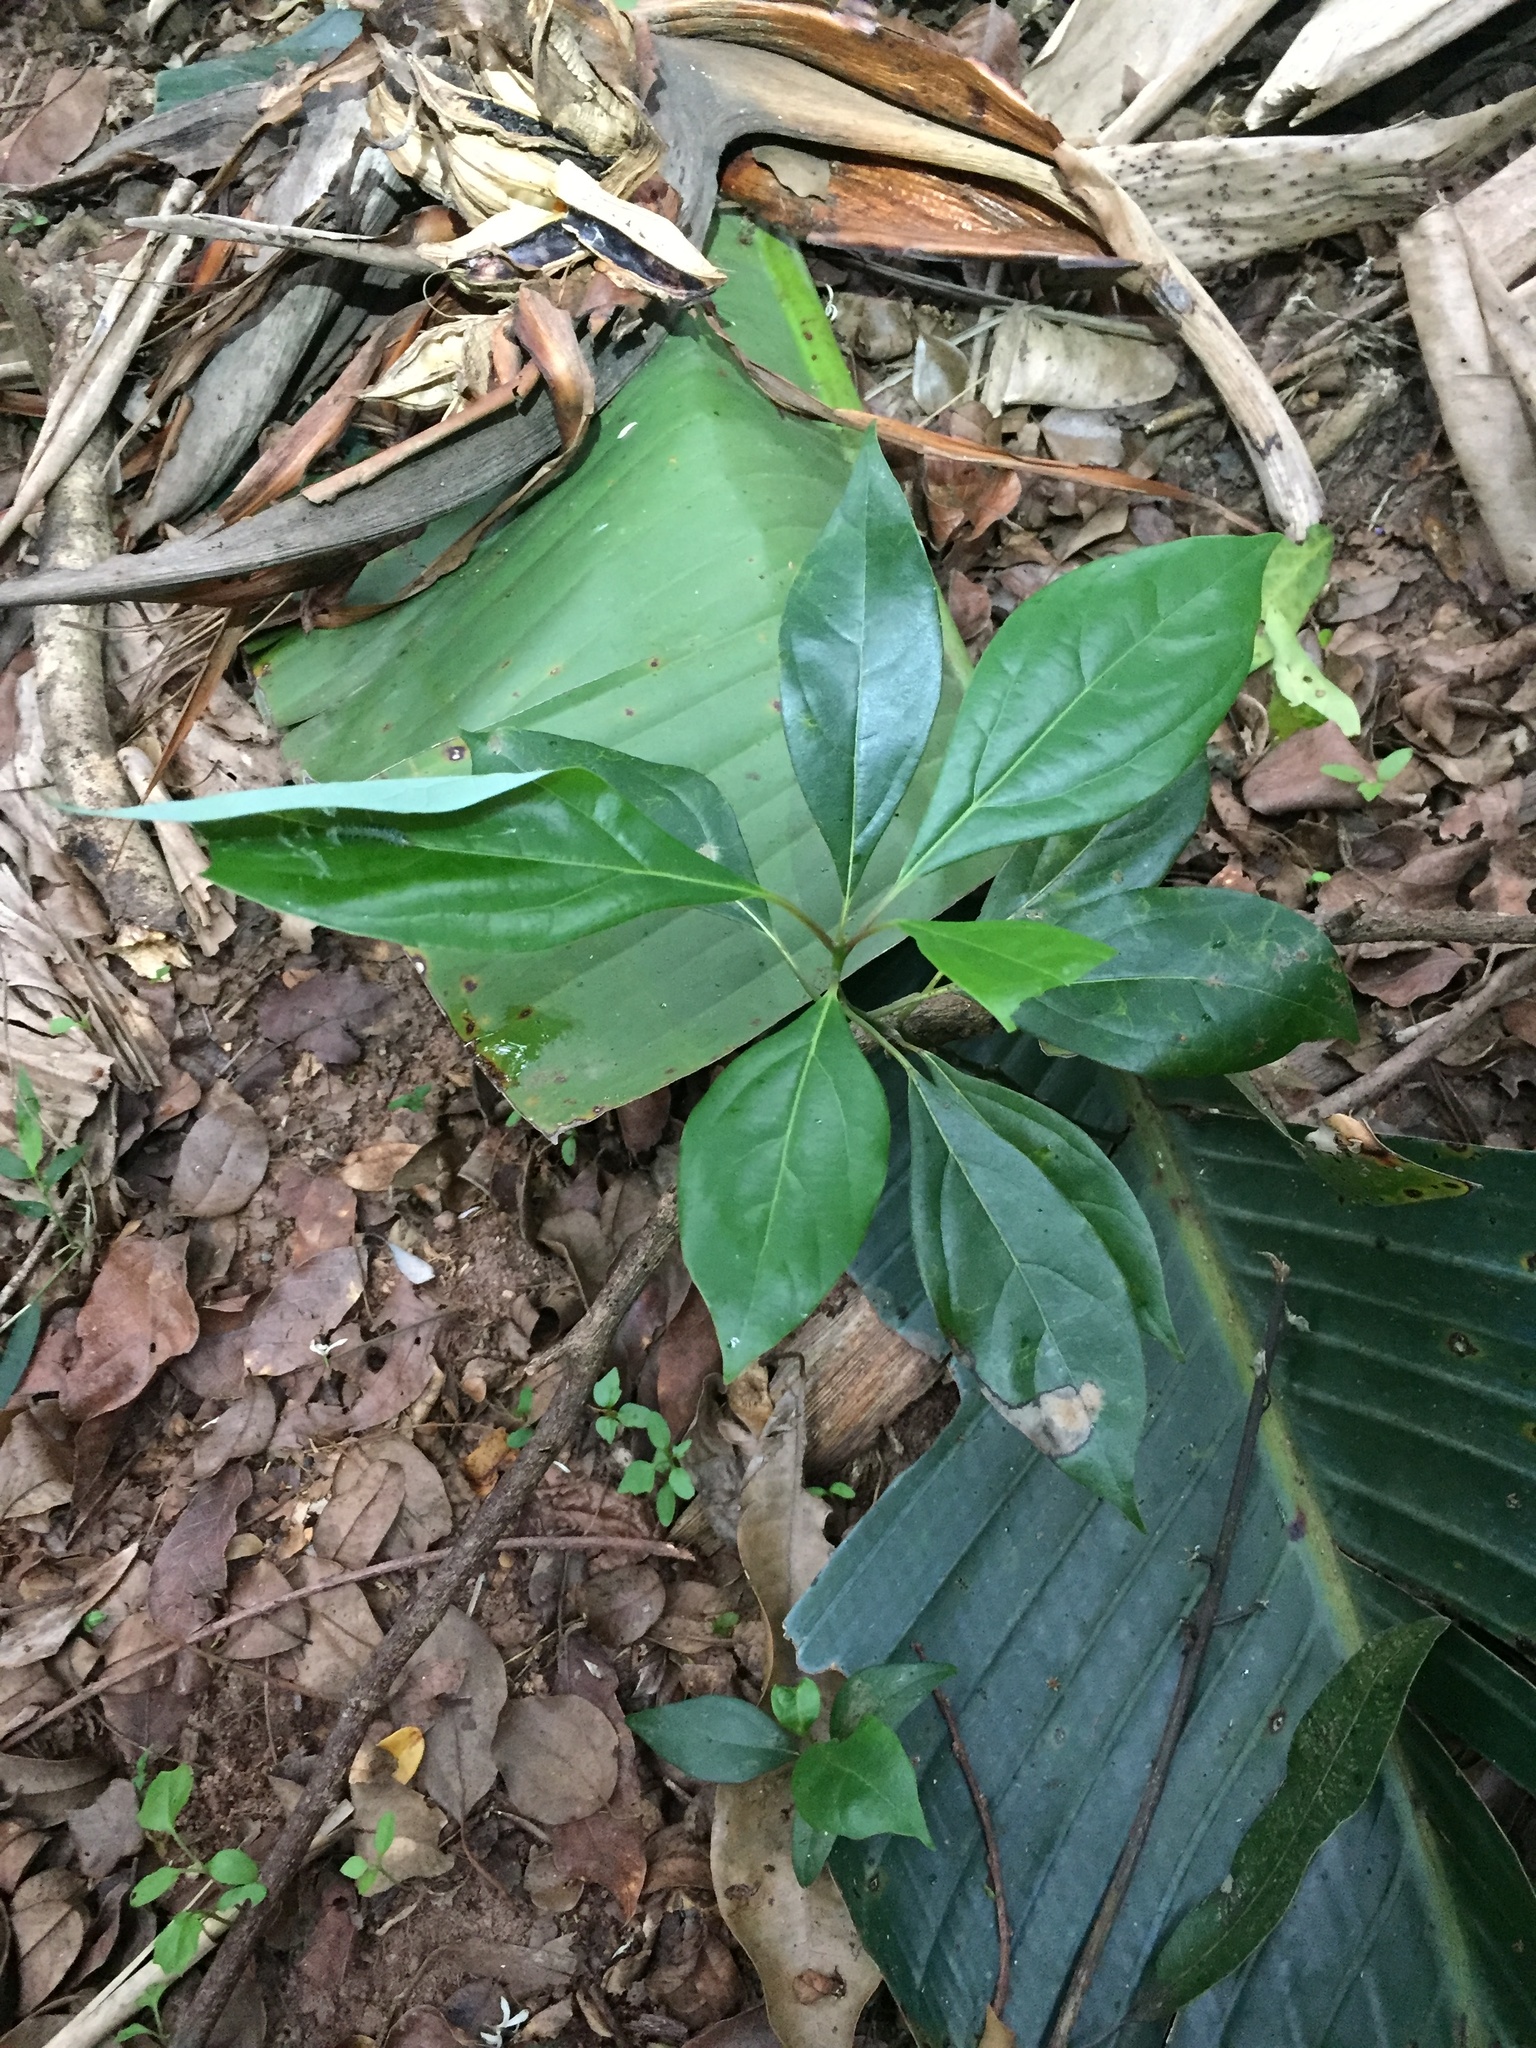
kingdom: Plantae
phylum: Tracheophyta
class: Magnoliopsida
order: Laurales
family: Lauraceae
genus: Cinnamomum
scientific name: Cinnamomum camphora
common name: Camphortree
